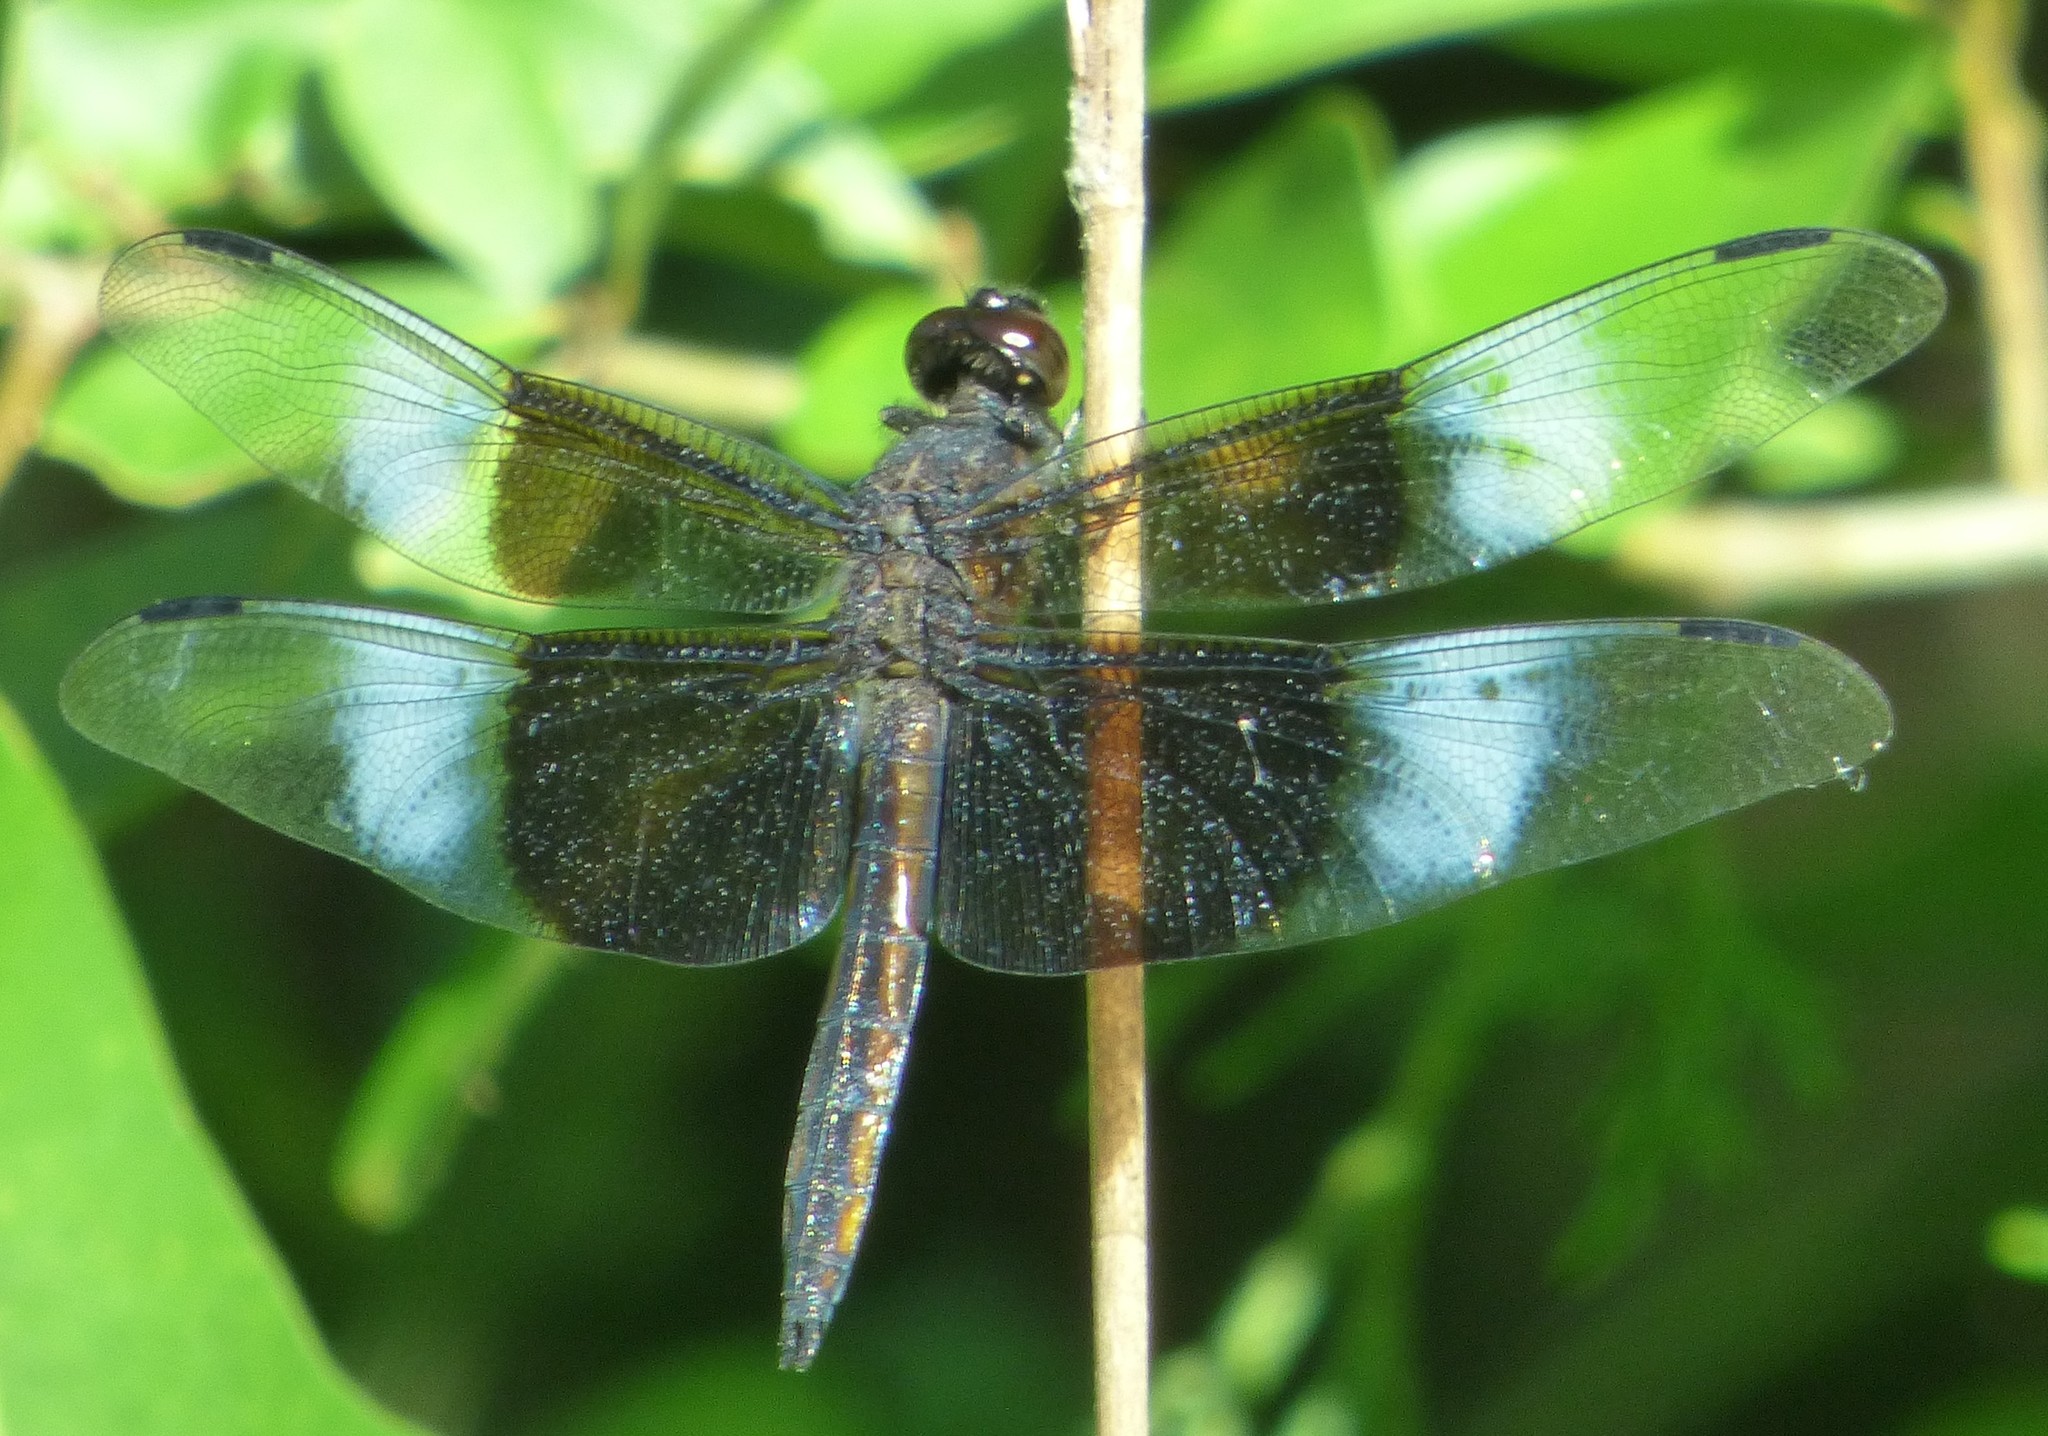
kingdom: Animalia
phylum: Arthropoda
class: Insecta
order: Odonata
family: Libellulidae
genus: Libellula
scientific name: Libellula luctuosa
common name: Widow skimmer
